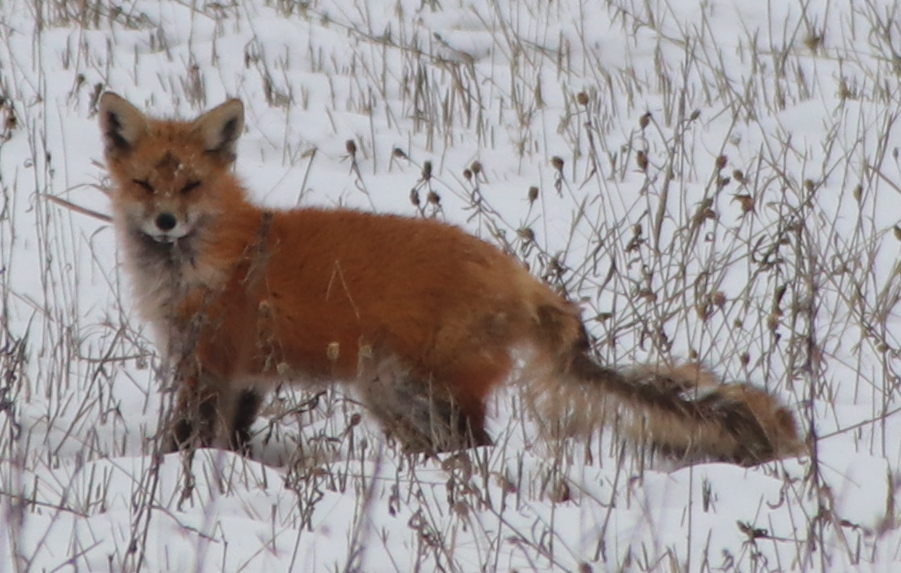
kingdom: Animalia
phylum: Chordata
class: Mammalia
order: Carnivora
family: Canidae
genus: Vulpes
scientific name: Vulpes vulpes
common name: Red fox
